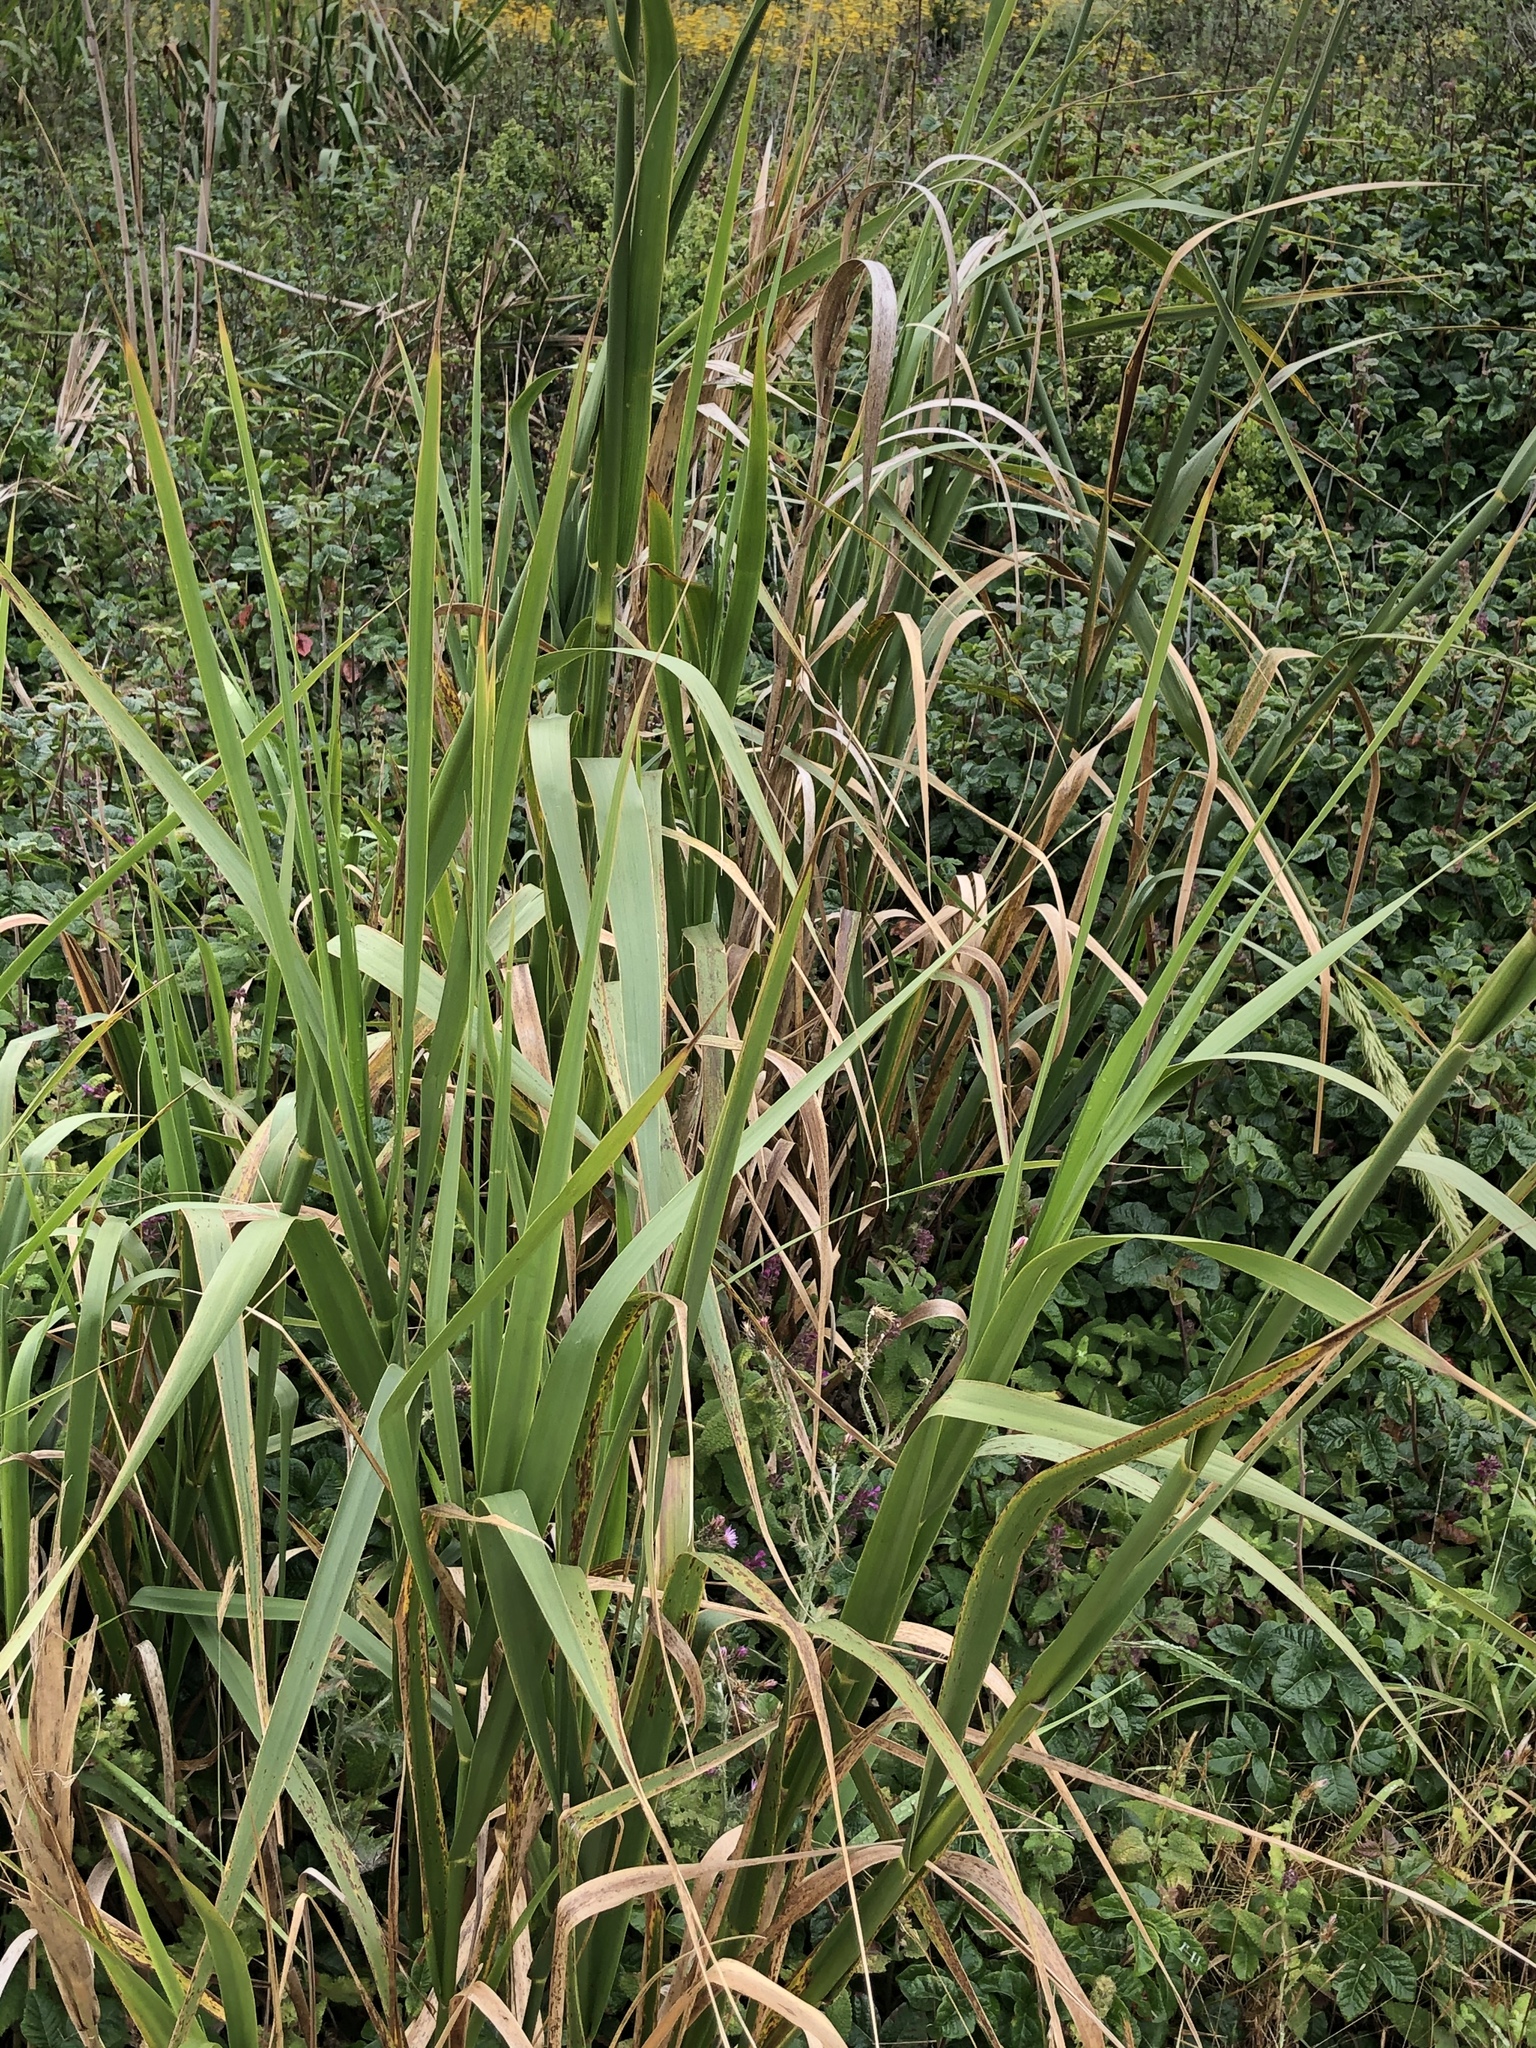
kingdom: Plantae
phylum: Tracheophyta
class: Liliopsida
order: Poales
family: Poaceae
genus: Leymus
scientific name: Leymus condensatus
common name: Giant wild rye
